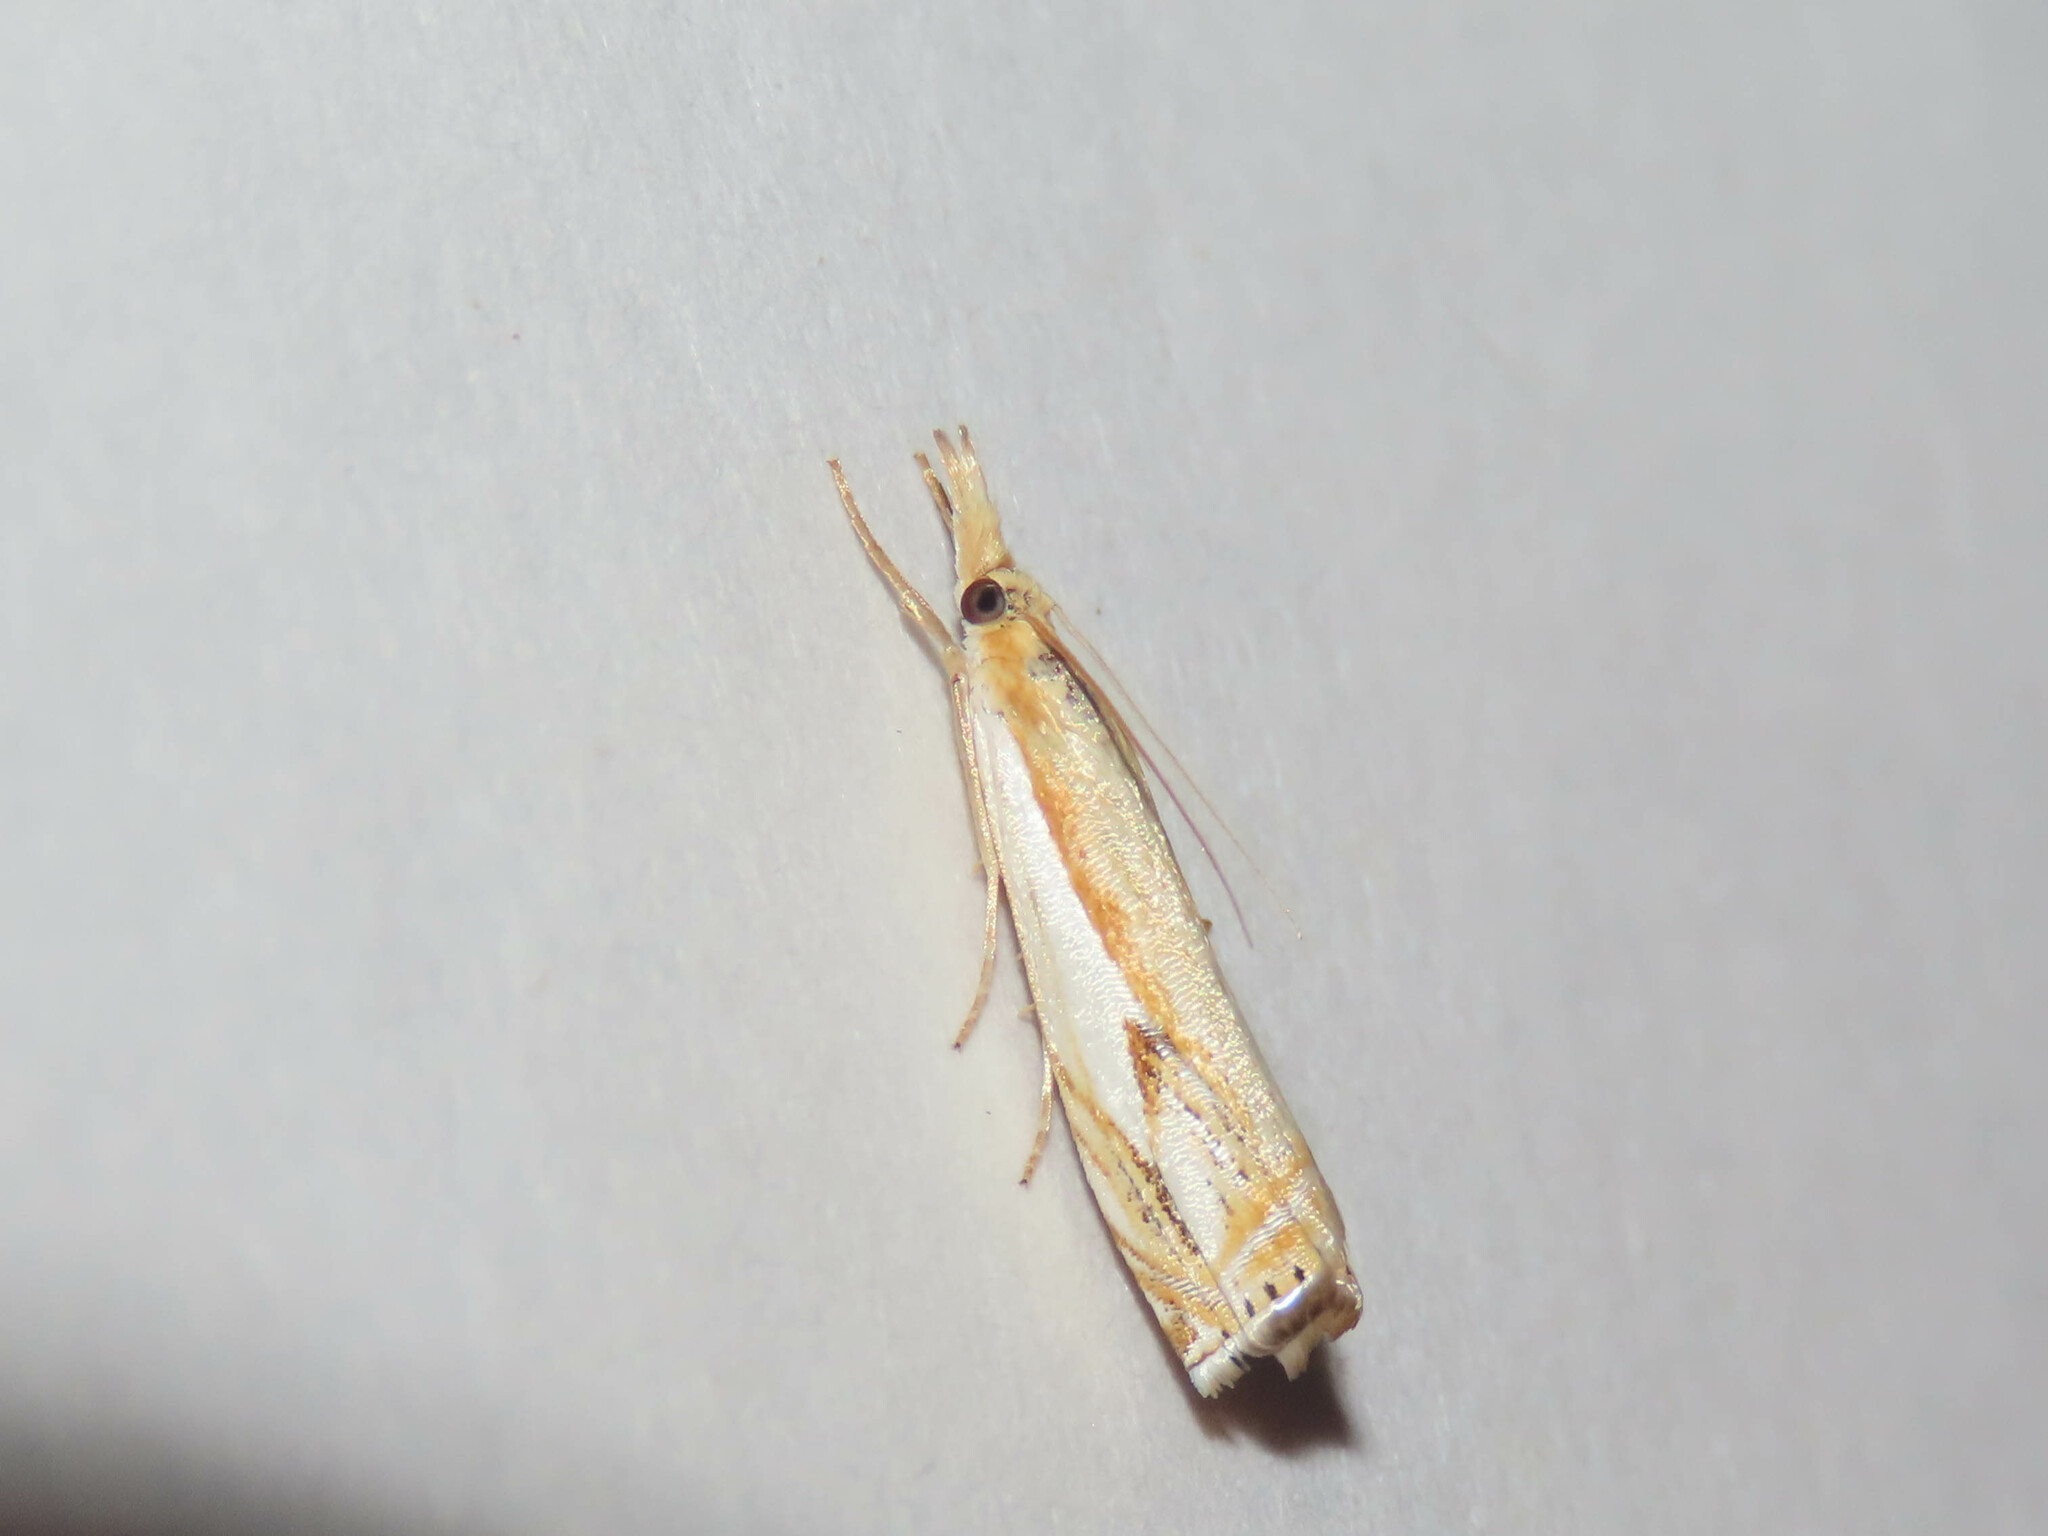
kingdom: Animalia
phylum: Arthropoda
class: Insecta
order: Lepidoptera
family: Crambidae
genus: Crambus
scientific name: Crambus agitatellus
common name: Double-banded grass-veneer
